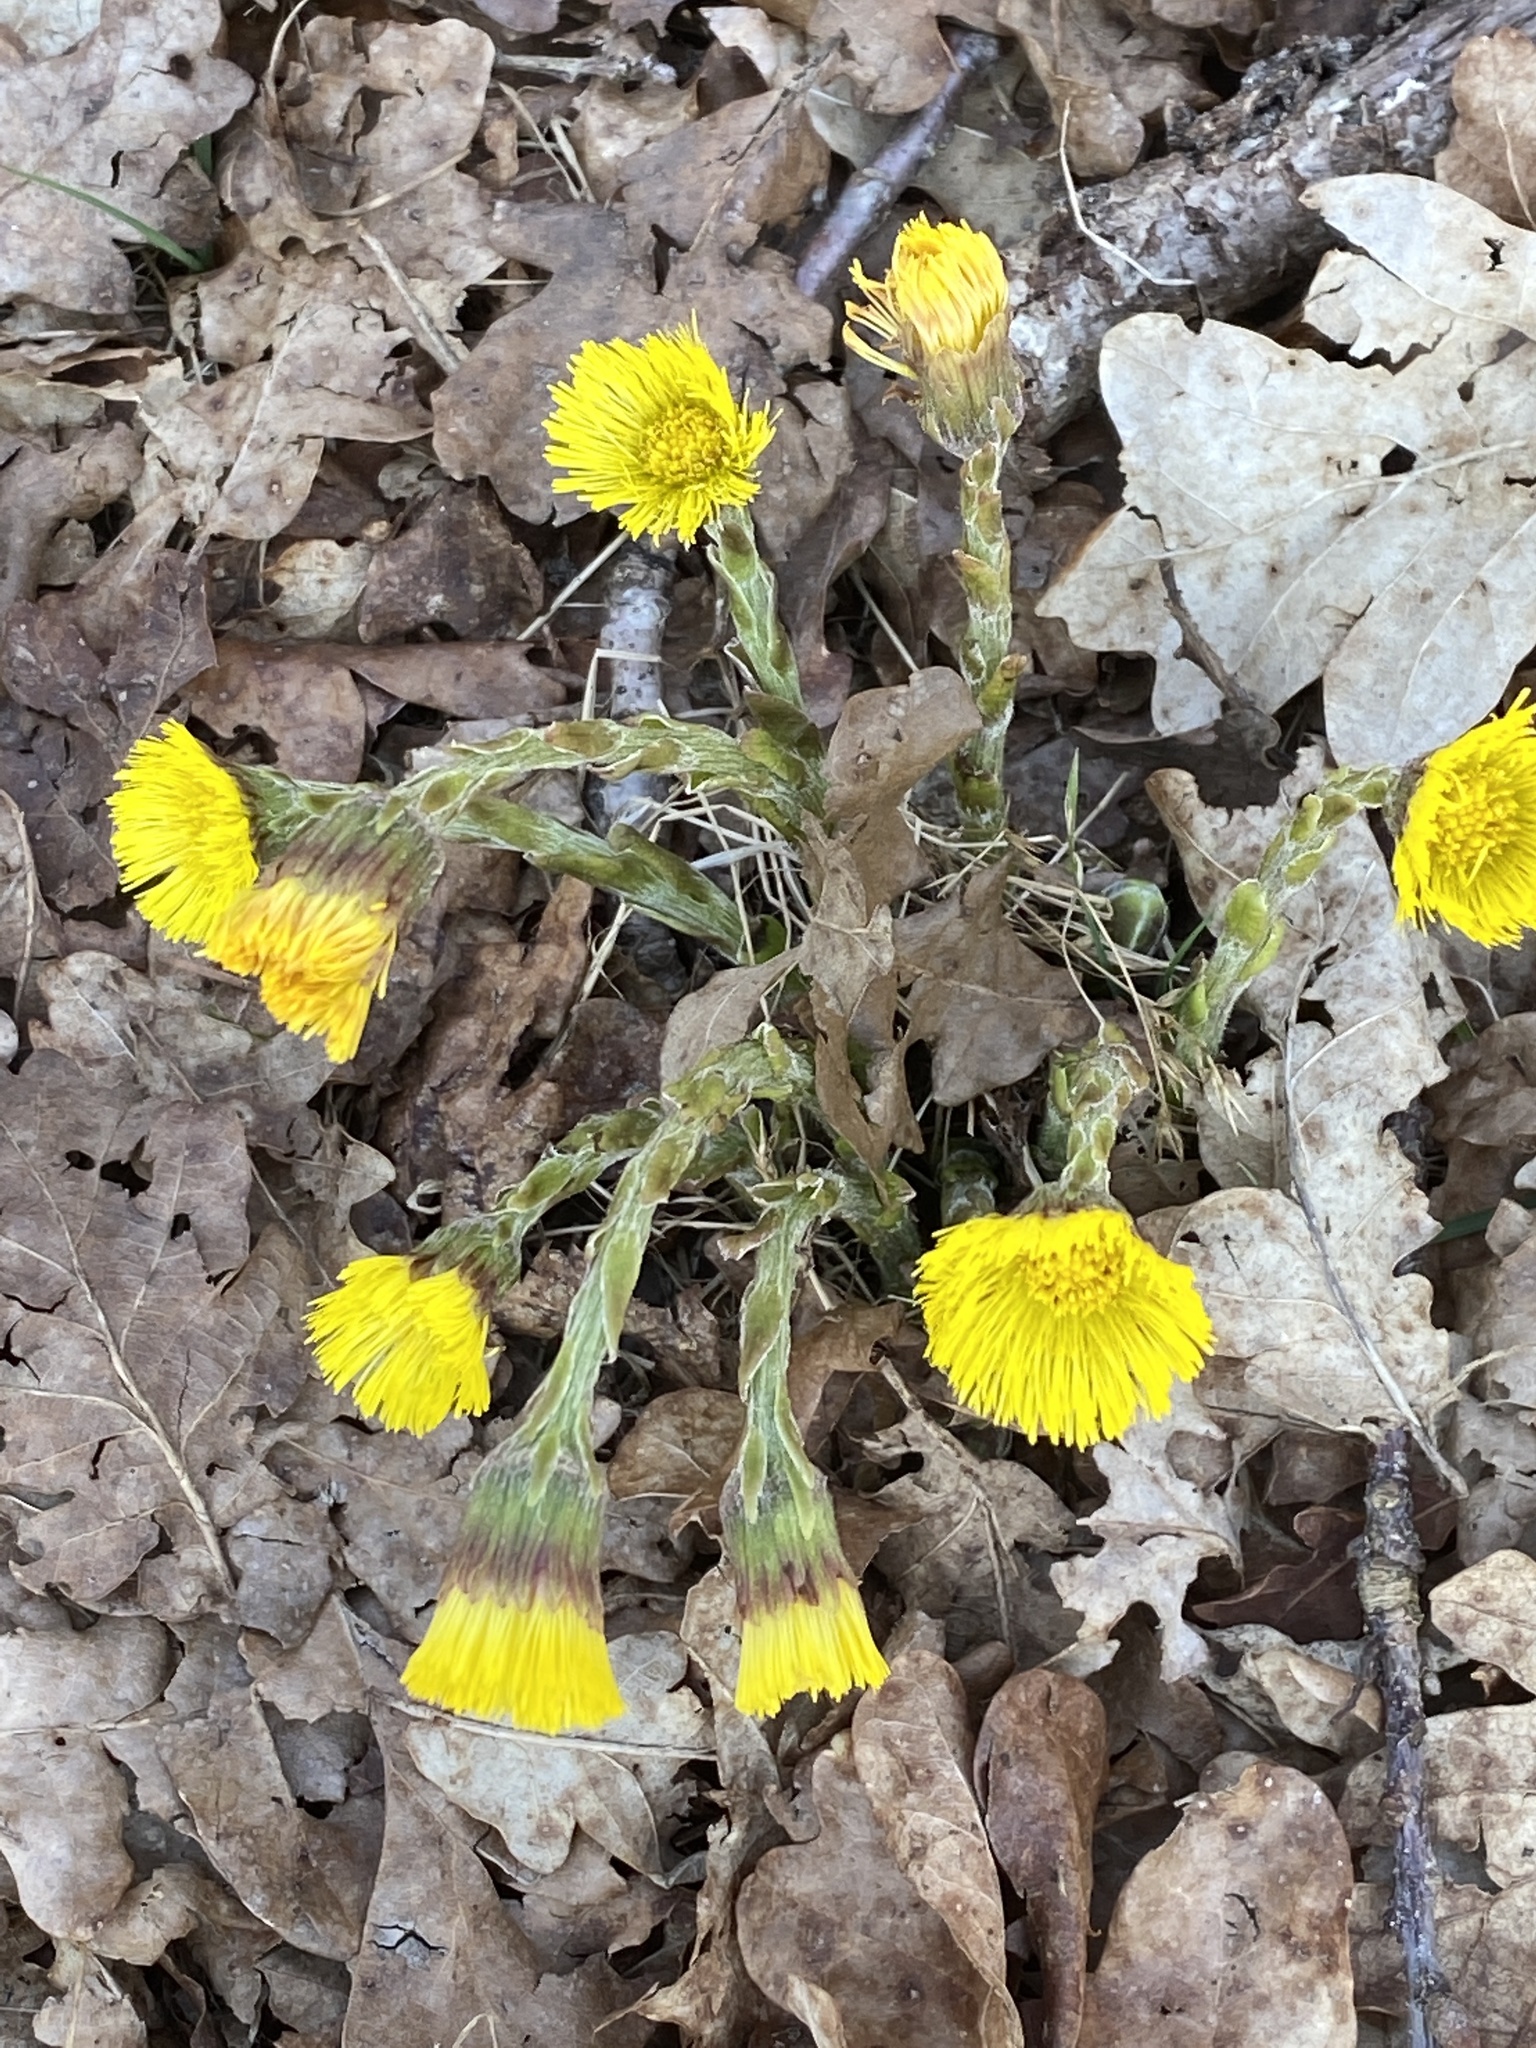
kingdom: Plantae
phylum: Tracheophyta
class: Magnoliopsida
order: Asterales
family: Asteraceae
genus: Tussilago
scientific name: Tussilago farfara
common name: Coltsfoot
